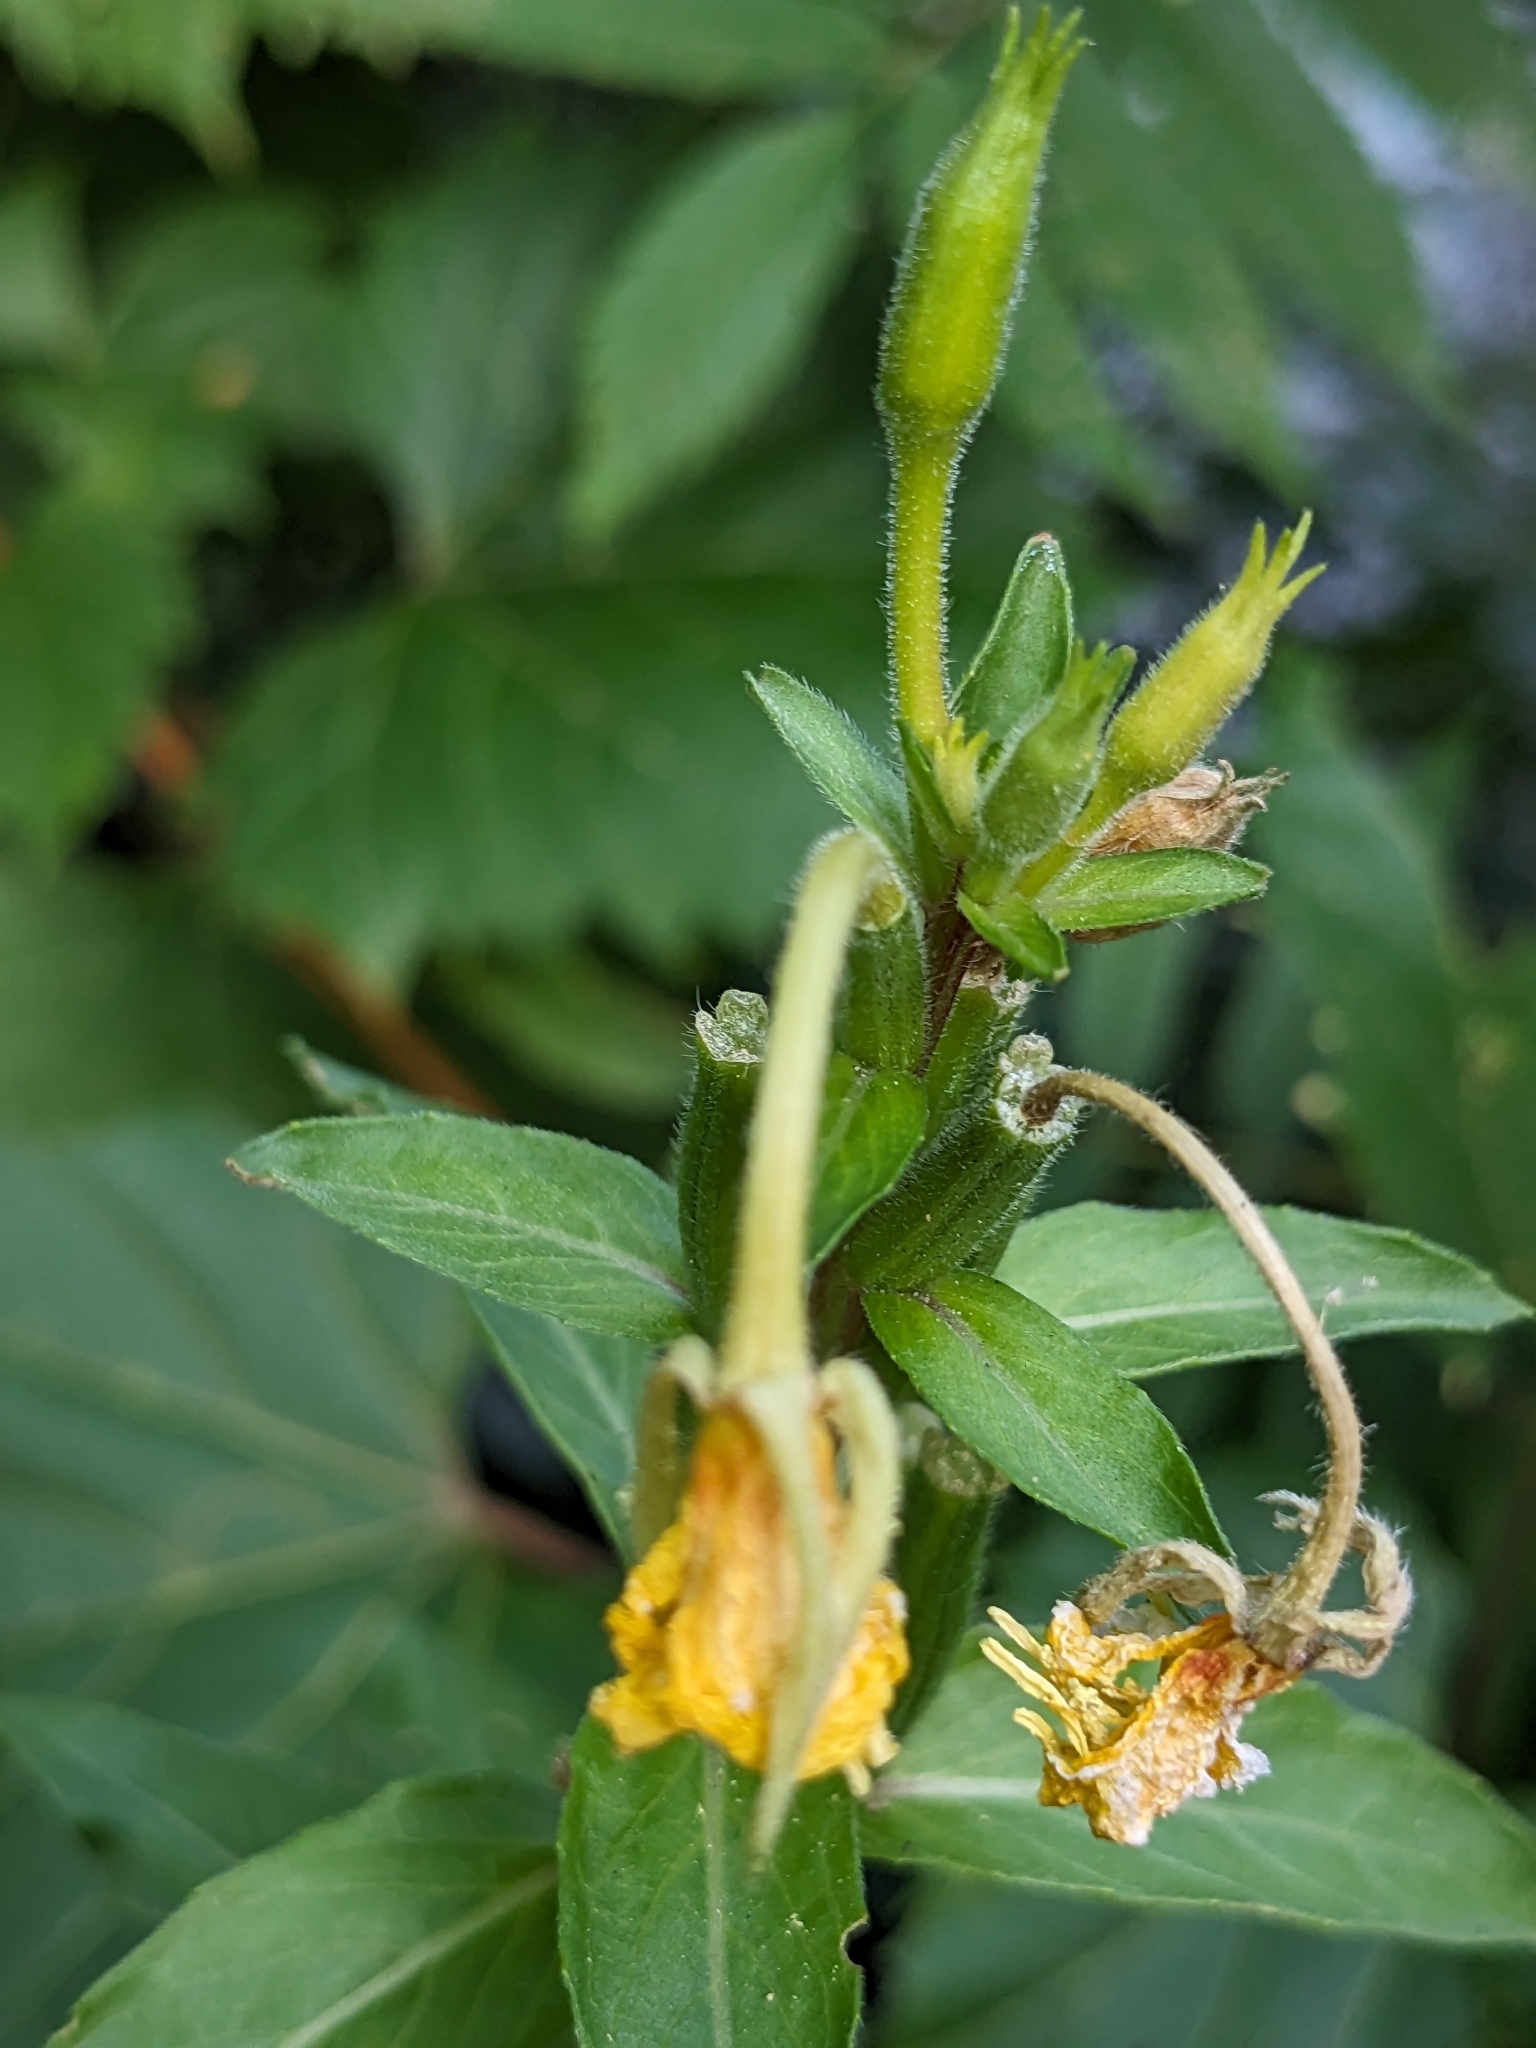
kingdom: Plantae
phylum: Tracheophyta
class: Magnoliopsida
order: Myrtales
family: Onagraceae
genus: Oenothera
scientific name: Oenothera biennis
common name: Common evening-primrose
